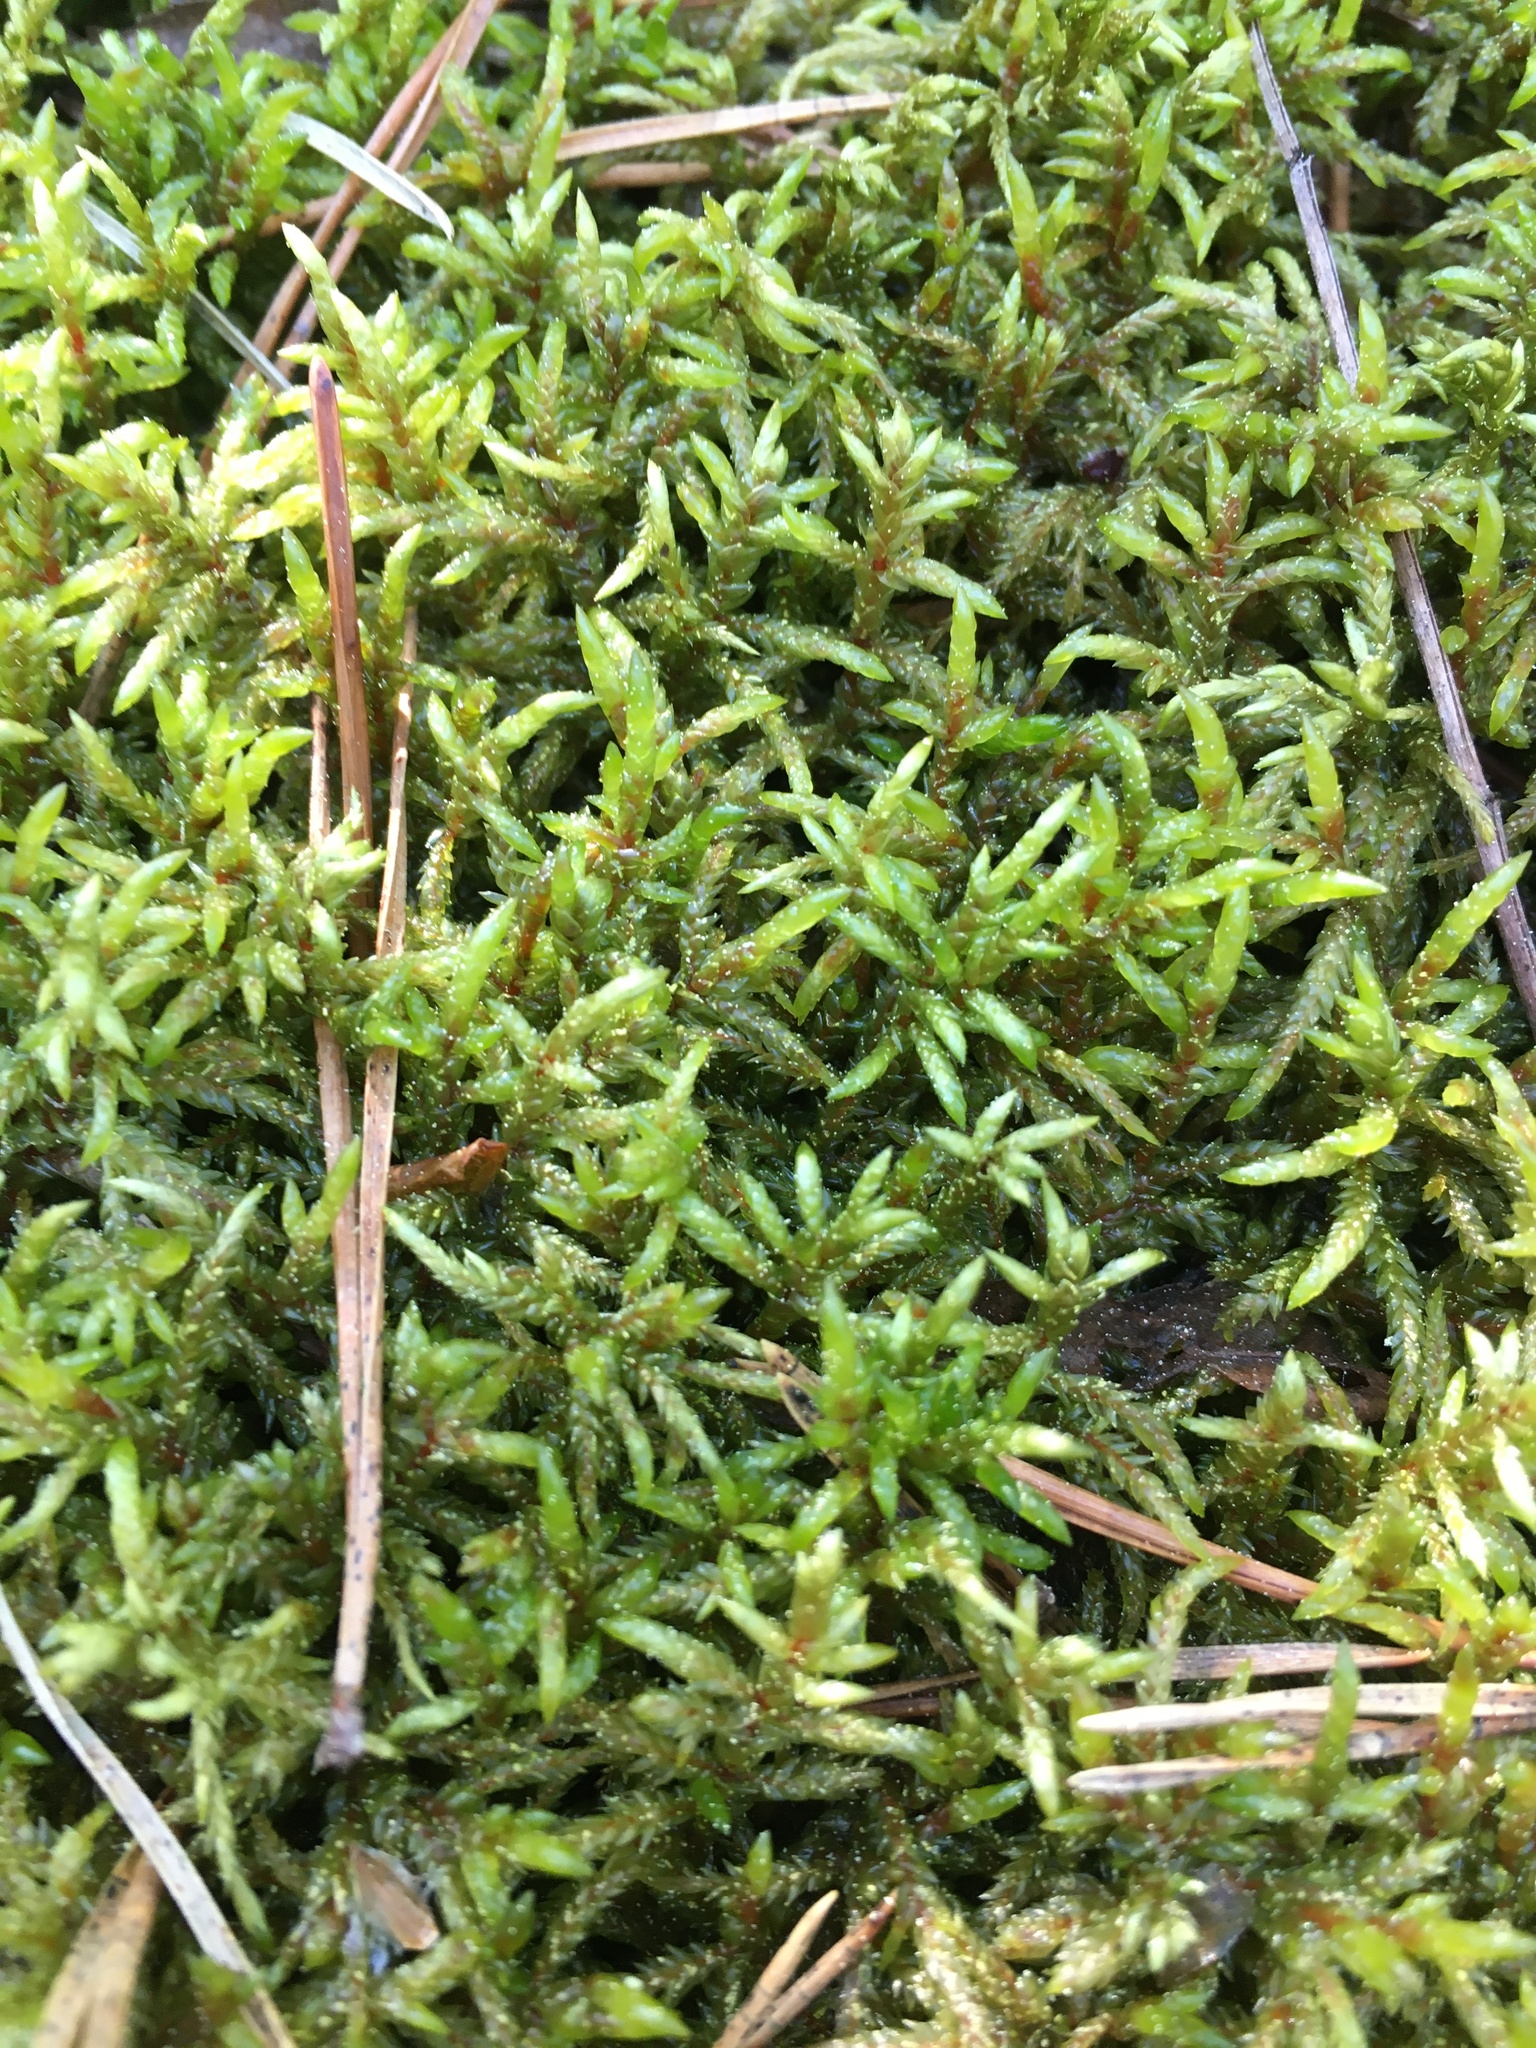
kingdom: Plantae
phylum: Bryophyta
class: Bryopsida
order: Hypnales
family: Hylocomiaceae
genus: Pleurozium
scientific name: Pleurozium schreberi
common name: Red-stemmed feather moss
